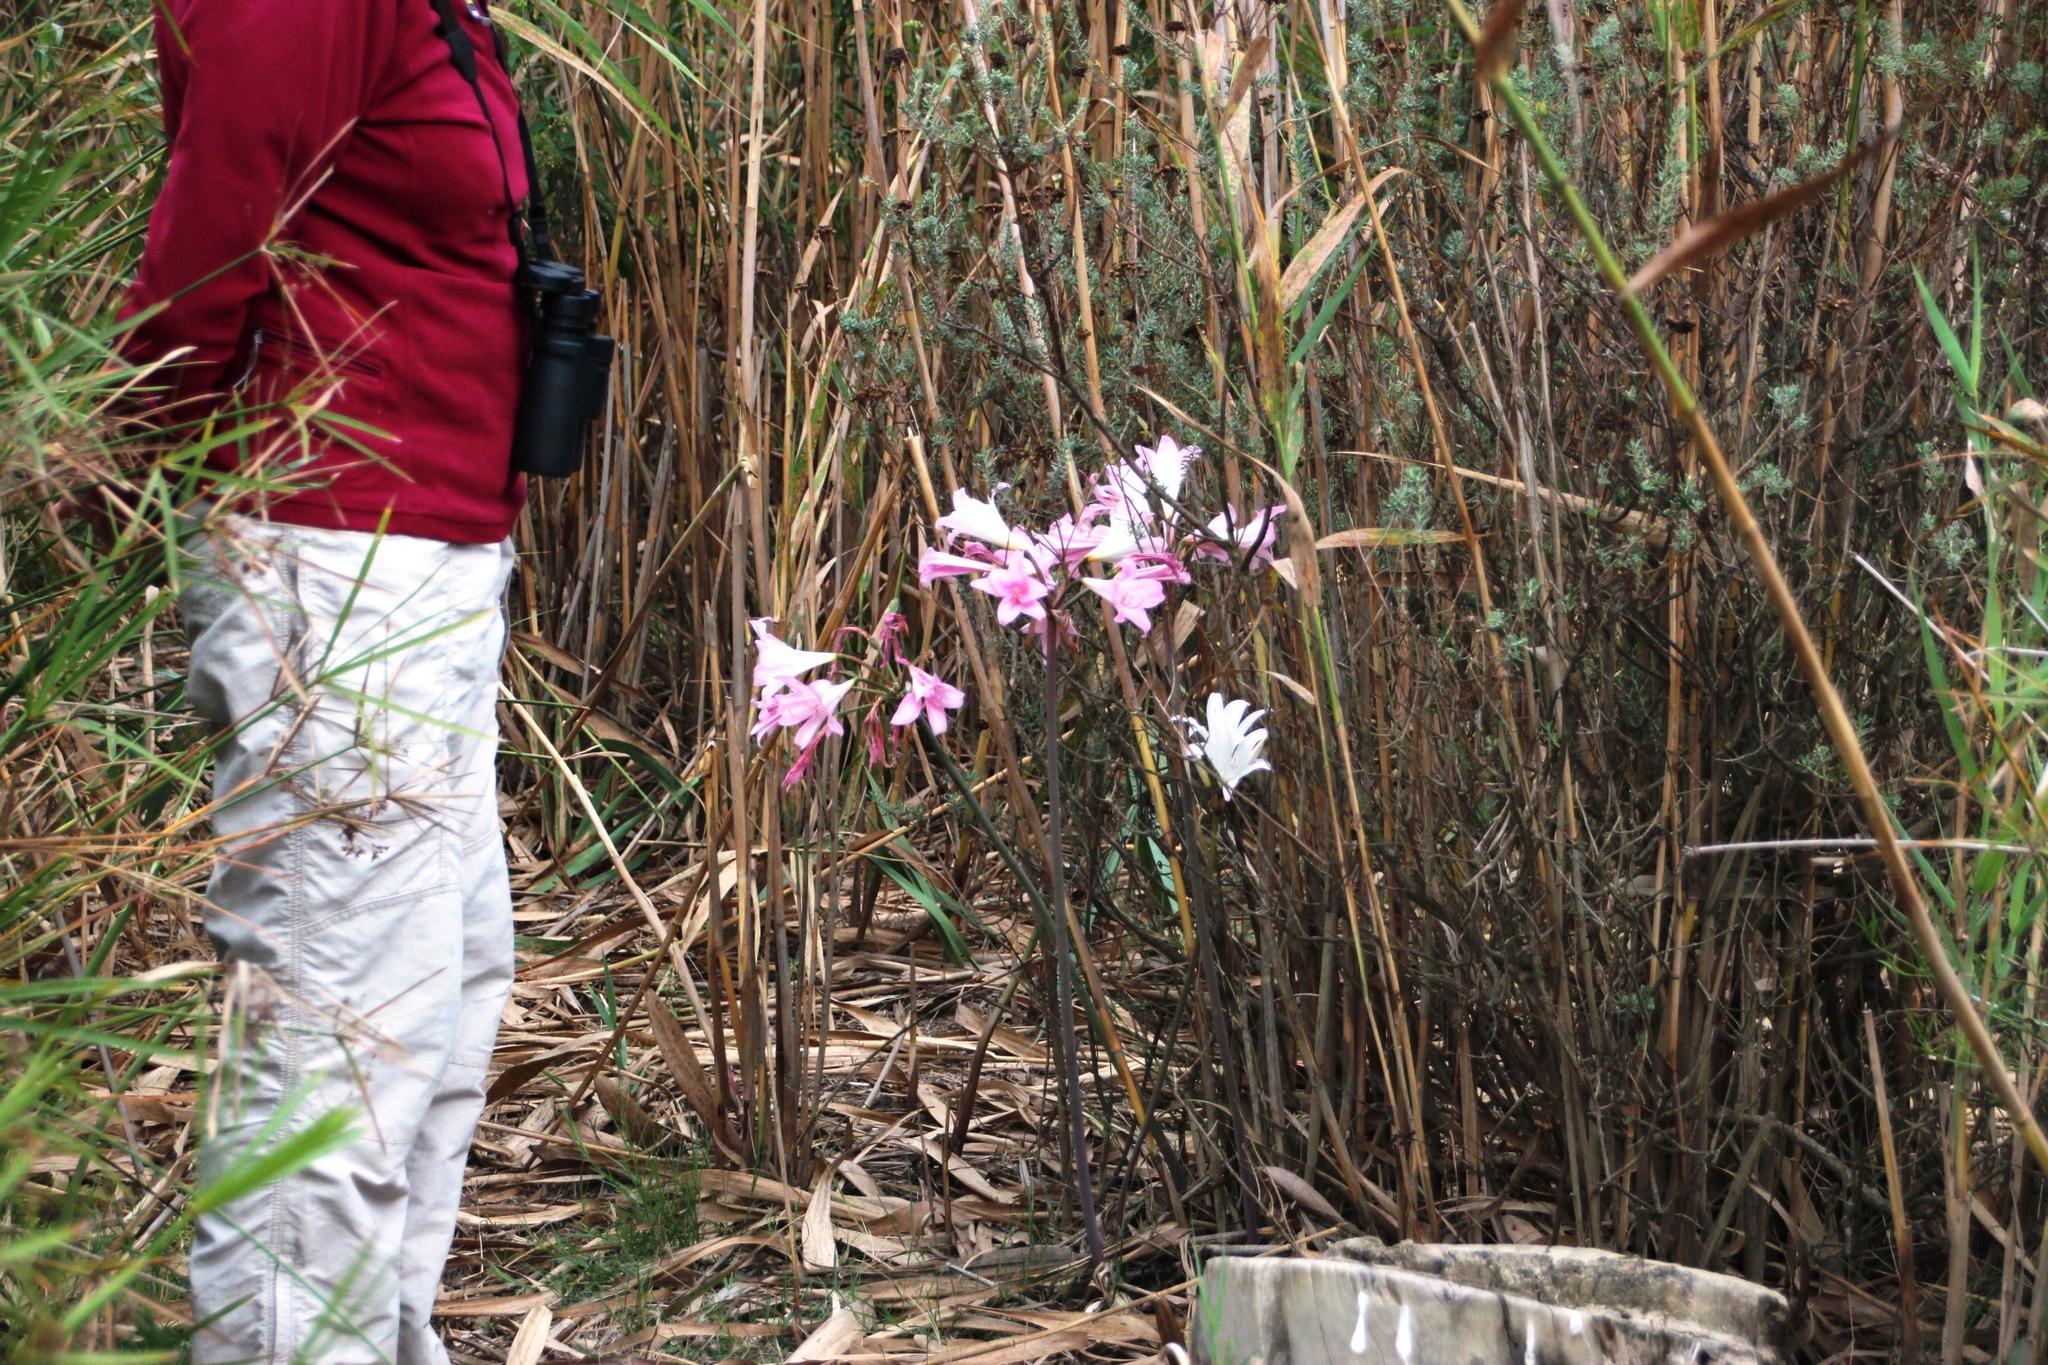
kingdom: Plantae
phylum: Tracheophyta
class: Liliopsida
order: Asparagales
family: Amaryllidaceae
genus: Amaryllis
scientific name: Amaryllis belladonna
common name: Jersey lily
